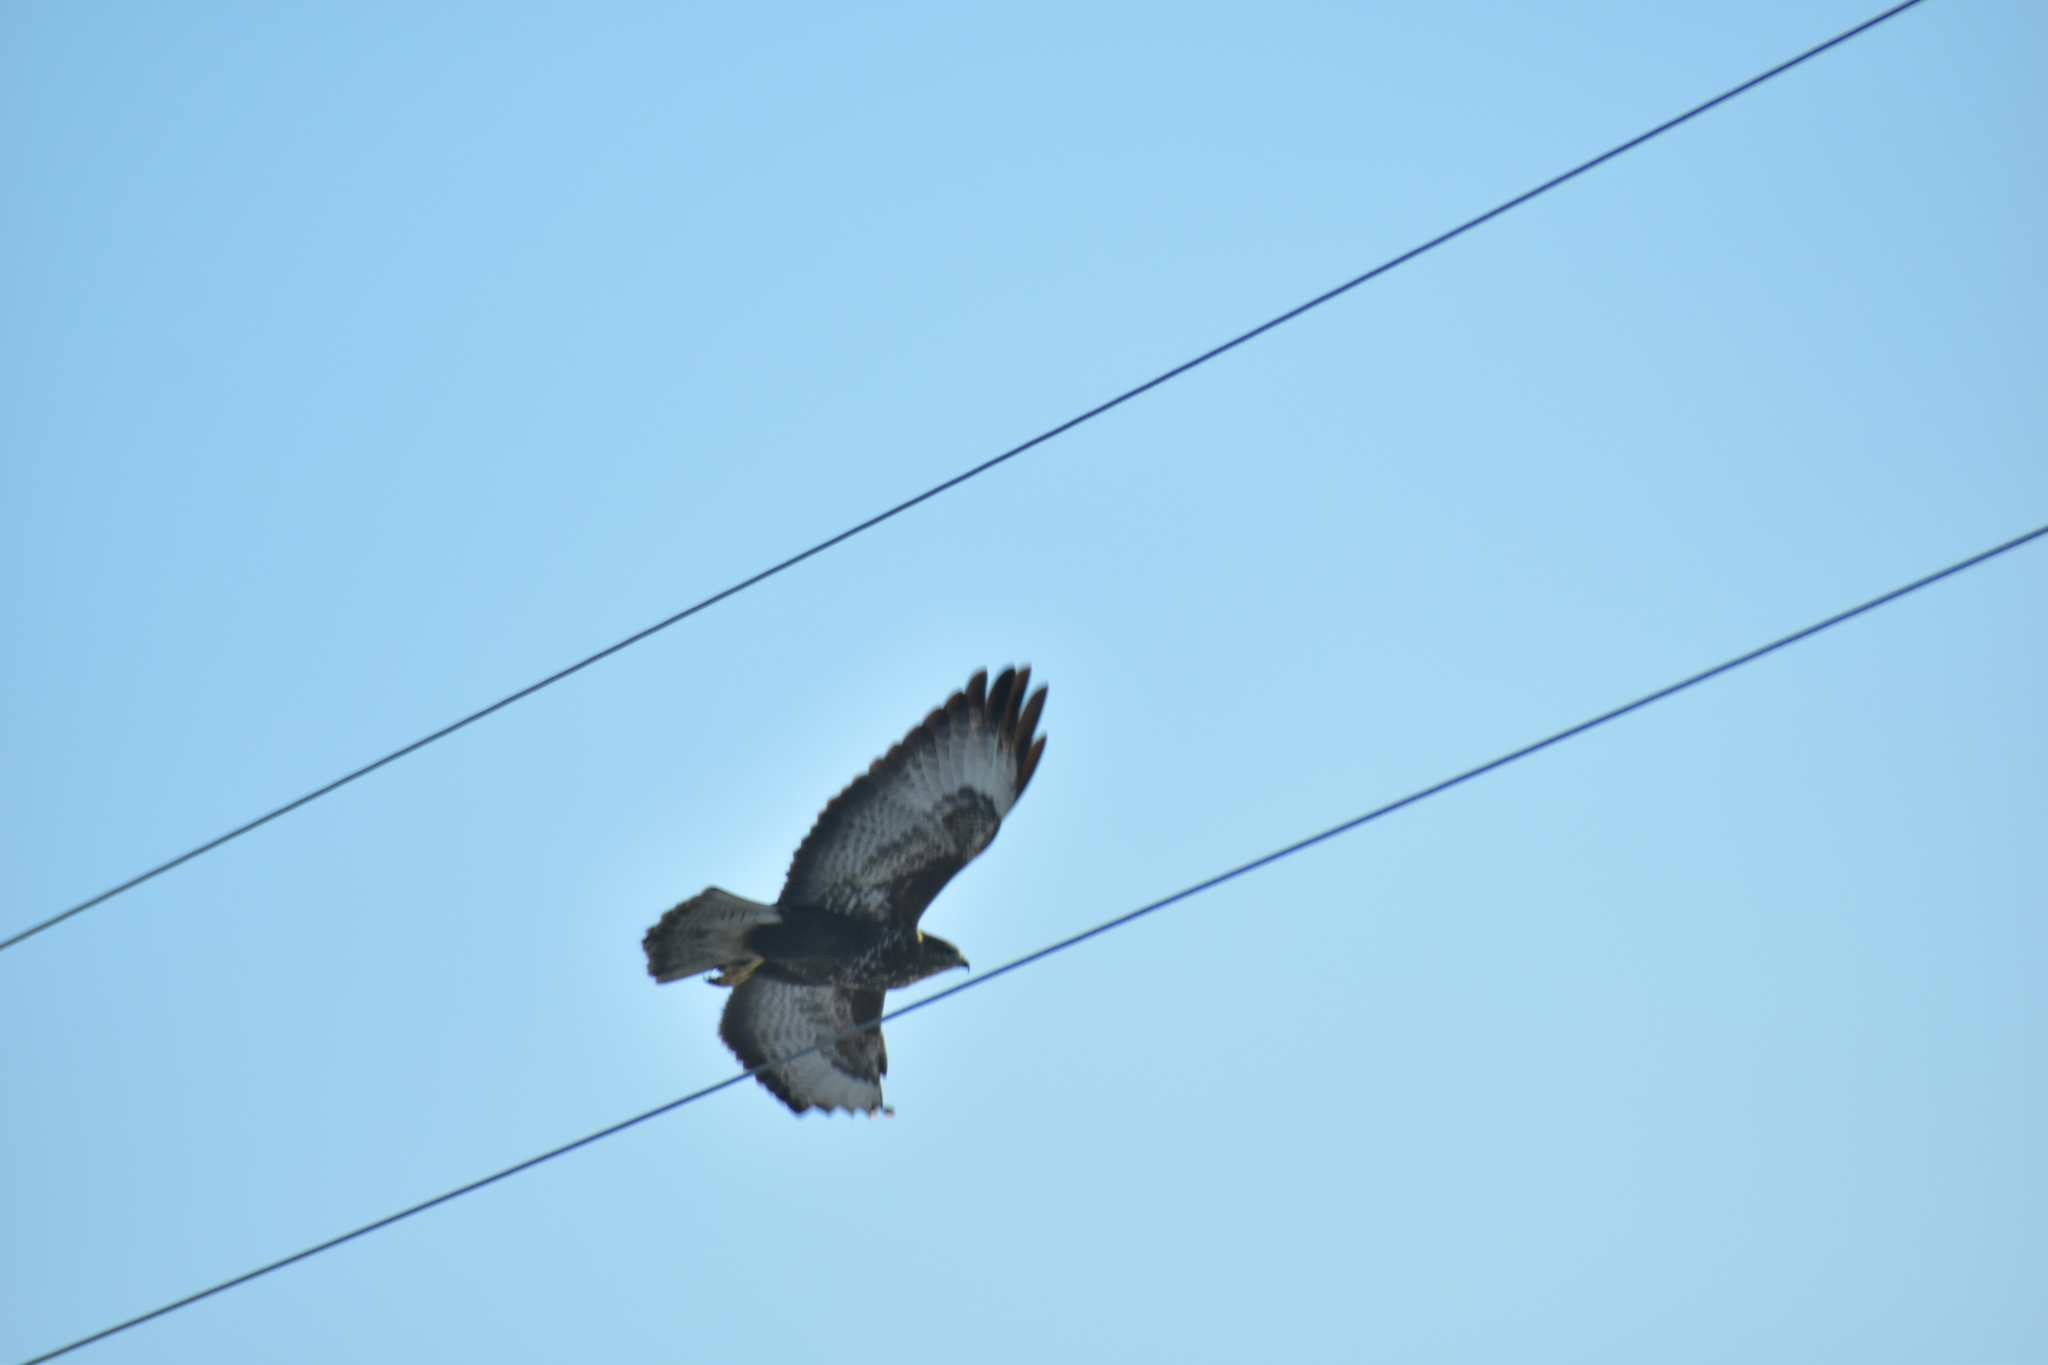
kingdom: Animalia
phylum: Chordata
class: Aves
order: Accipitriformes
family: Accipitridae
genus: Buteo
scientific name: Buteo buteo
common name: Common buzzard
